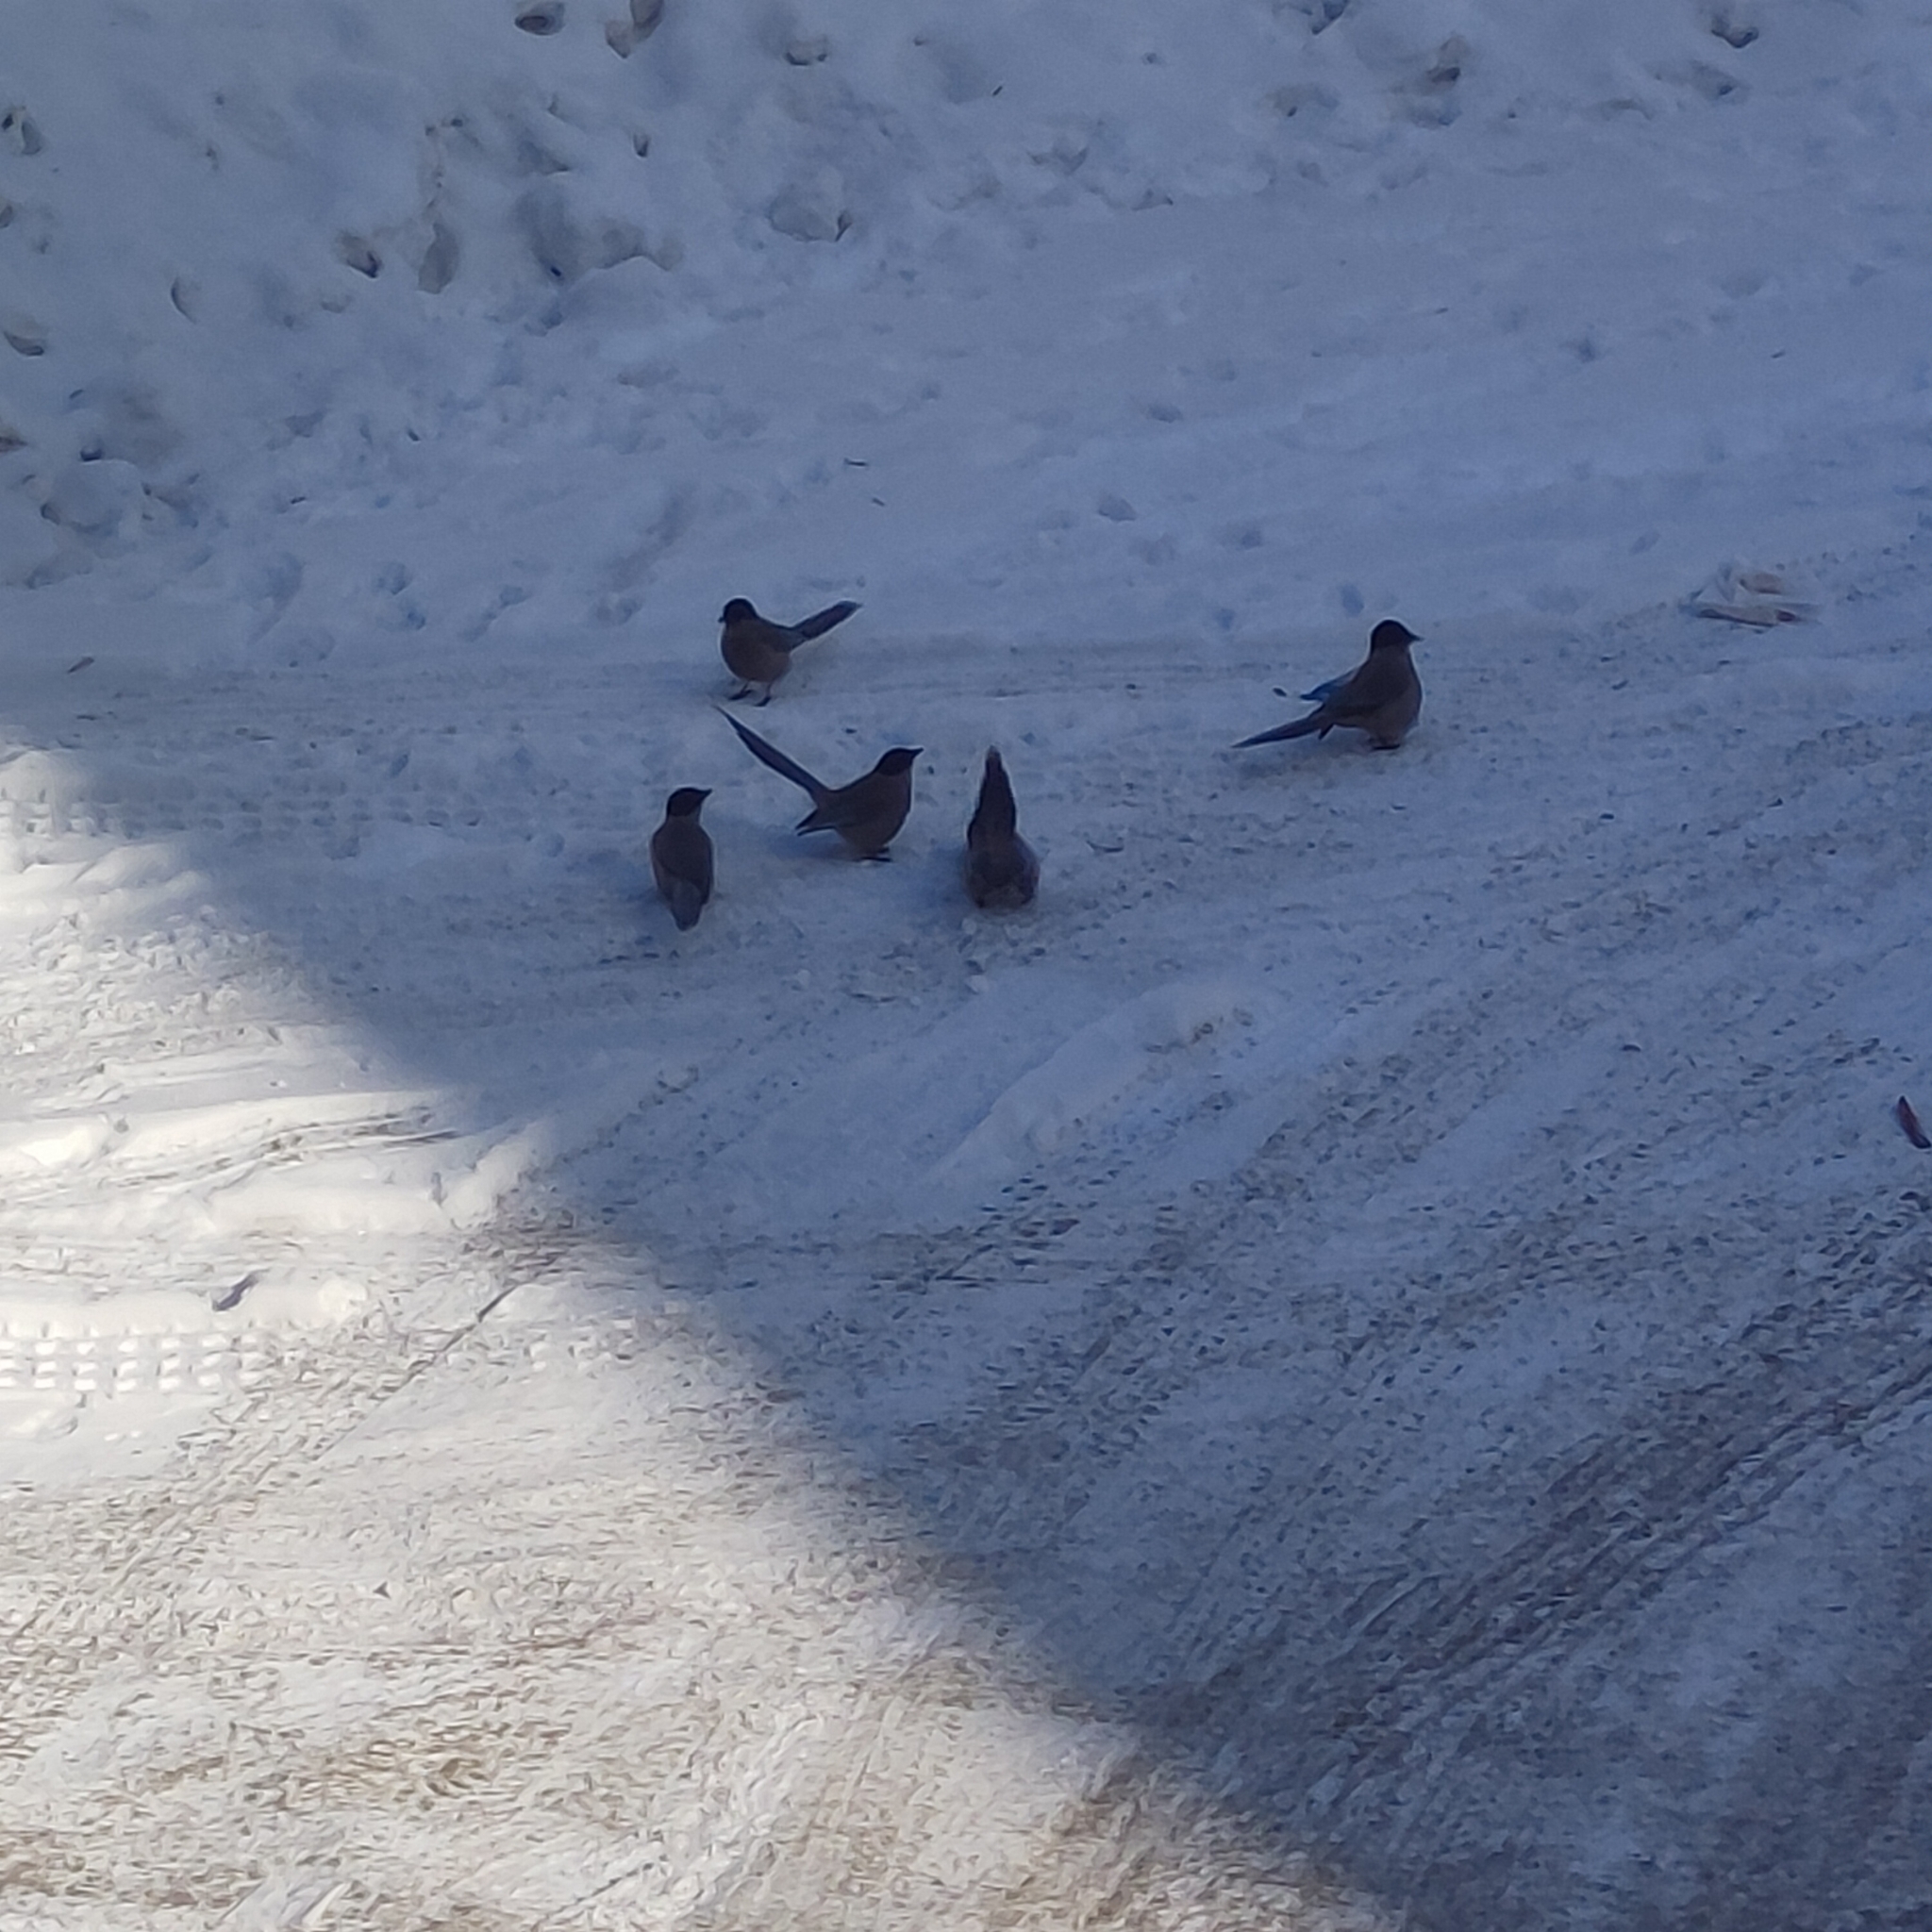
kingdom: Animalia
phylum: Chordata
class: Aves
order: Passeriformes
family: Corvidae
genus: Cyanopica
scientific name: Cyanopica cyanus
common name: Azure-winged magpie
